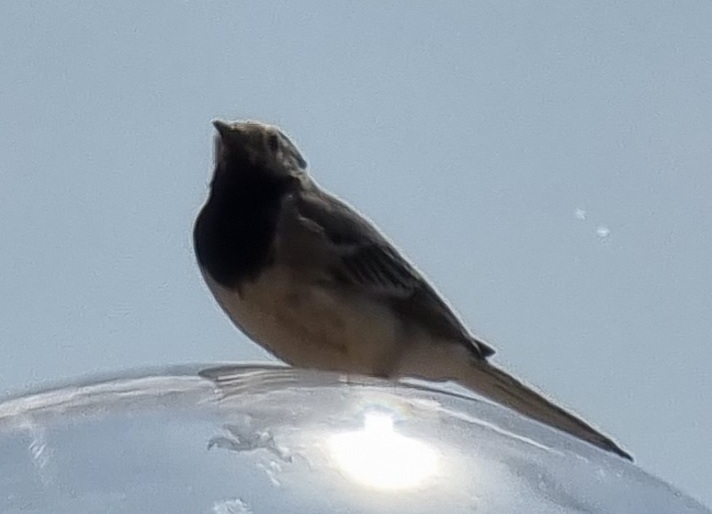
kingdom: Animalia
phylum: Chordata
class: Aves
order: Passeriformes
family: Motacillidae
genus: Motacilla
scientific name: Motacilla alba
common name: White wagtail
